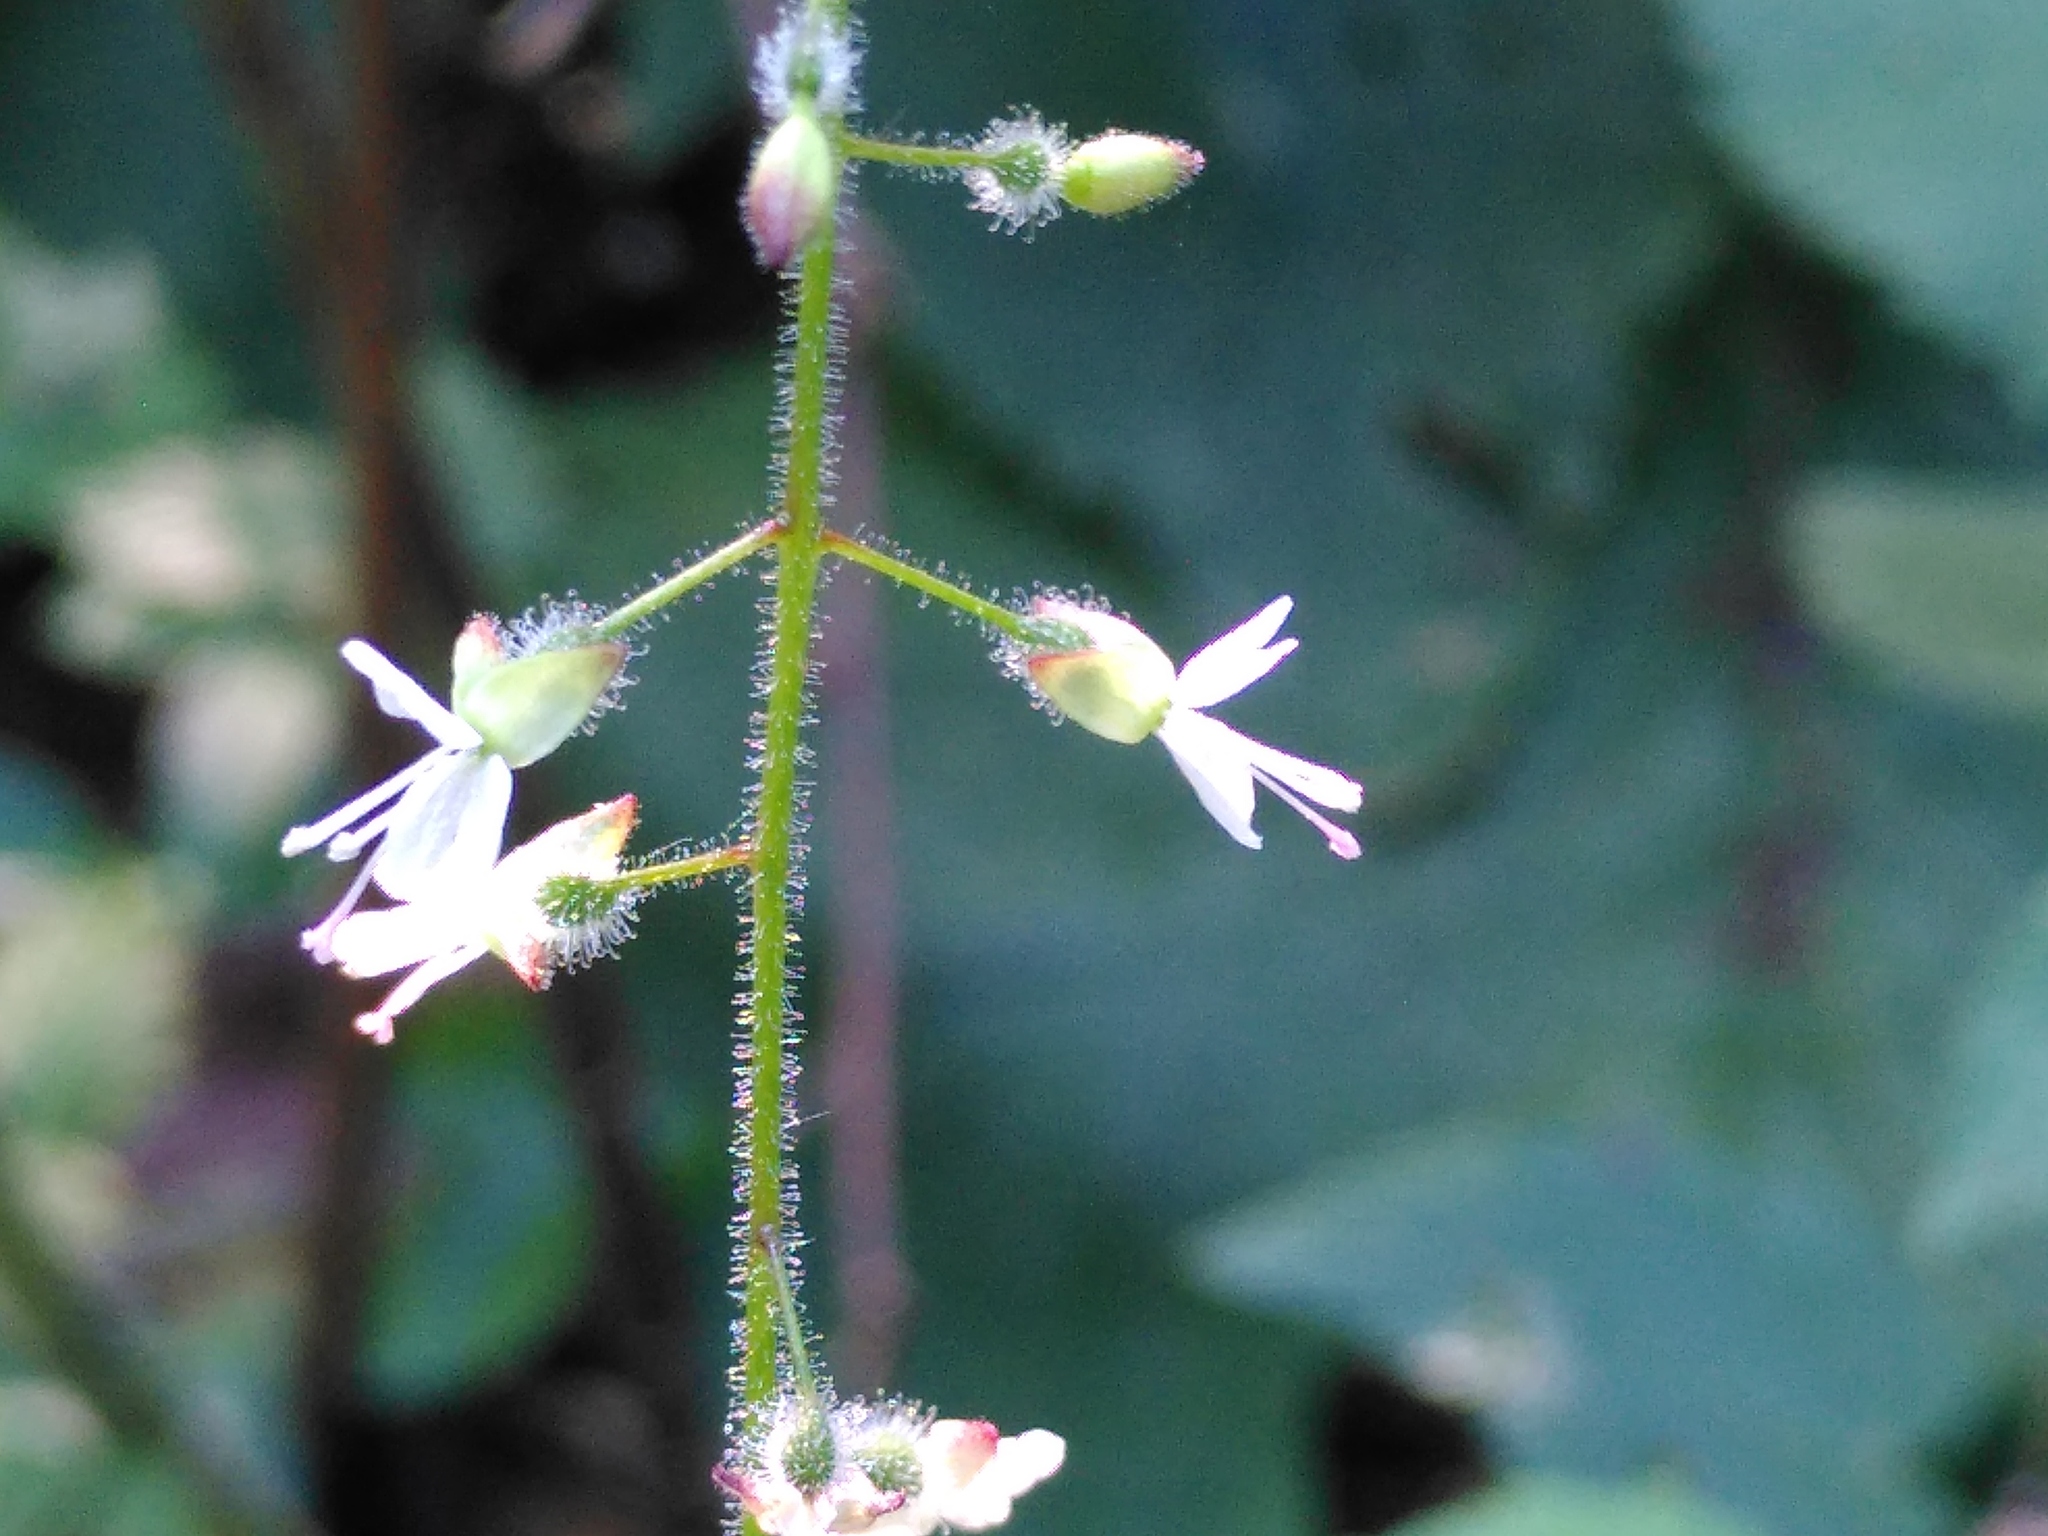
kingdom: Plantae
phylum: Tracheophyta
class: Magnoliopsida
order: Myrtales
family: Onagraceae
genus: Circaea
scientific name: Circaea lutetiana
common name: Enchanter's-nightshade
